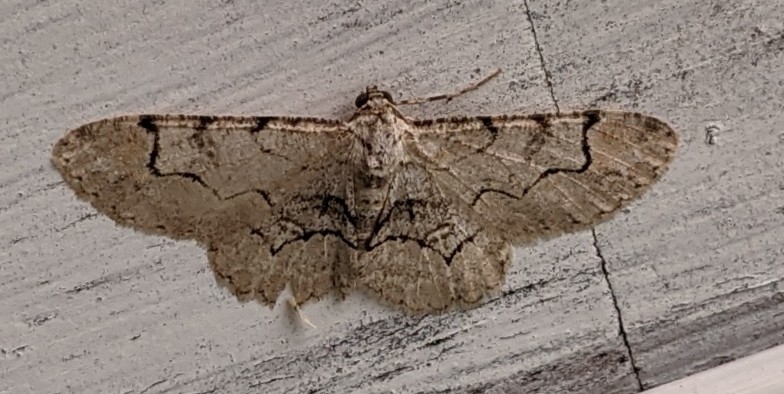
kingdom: Animalia
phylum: Arthropoda
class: Insecta
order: Lepidoptera
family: Geometridae
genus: Iridopsis
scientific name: Iridopsis larvaria
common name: Bent-line gray
